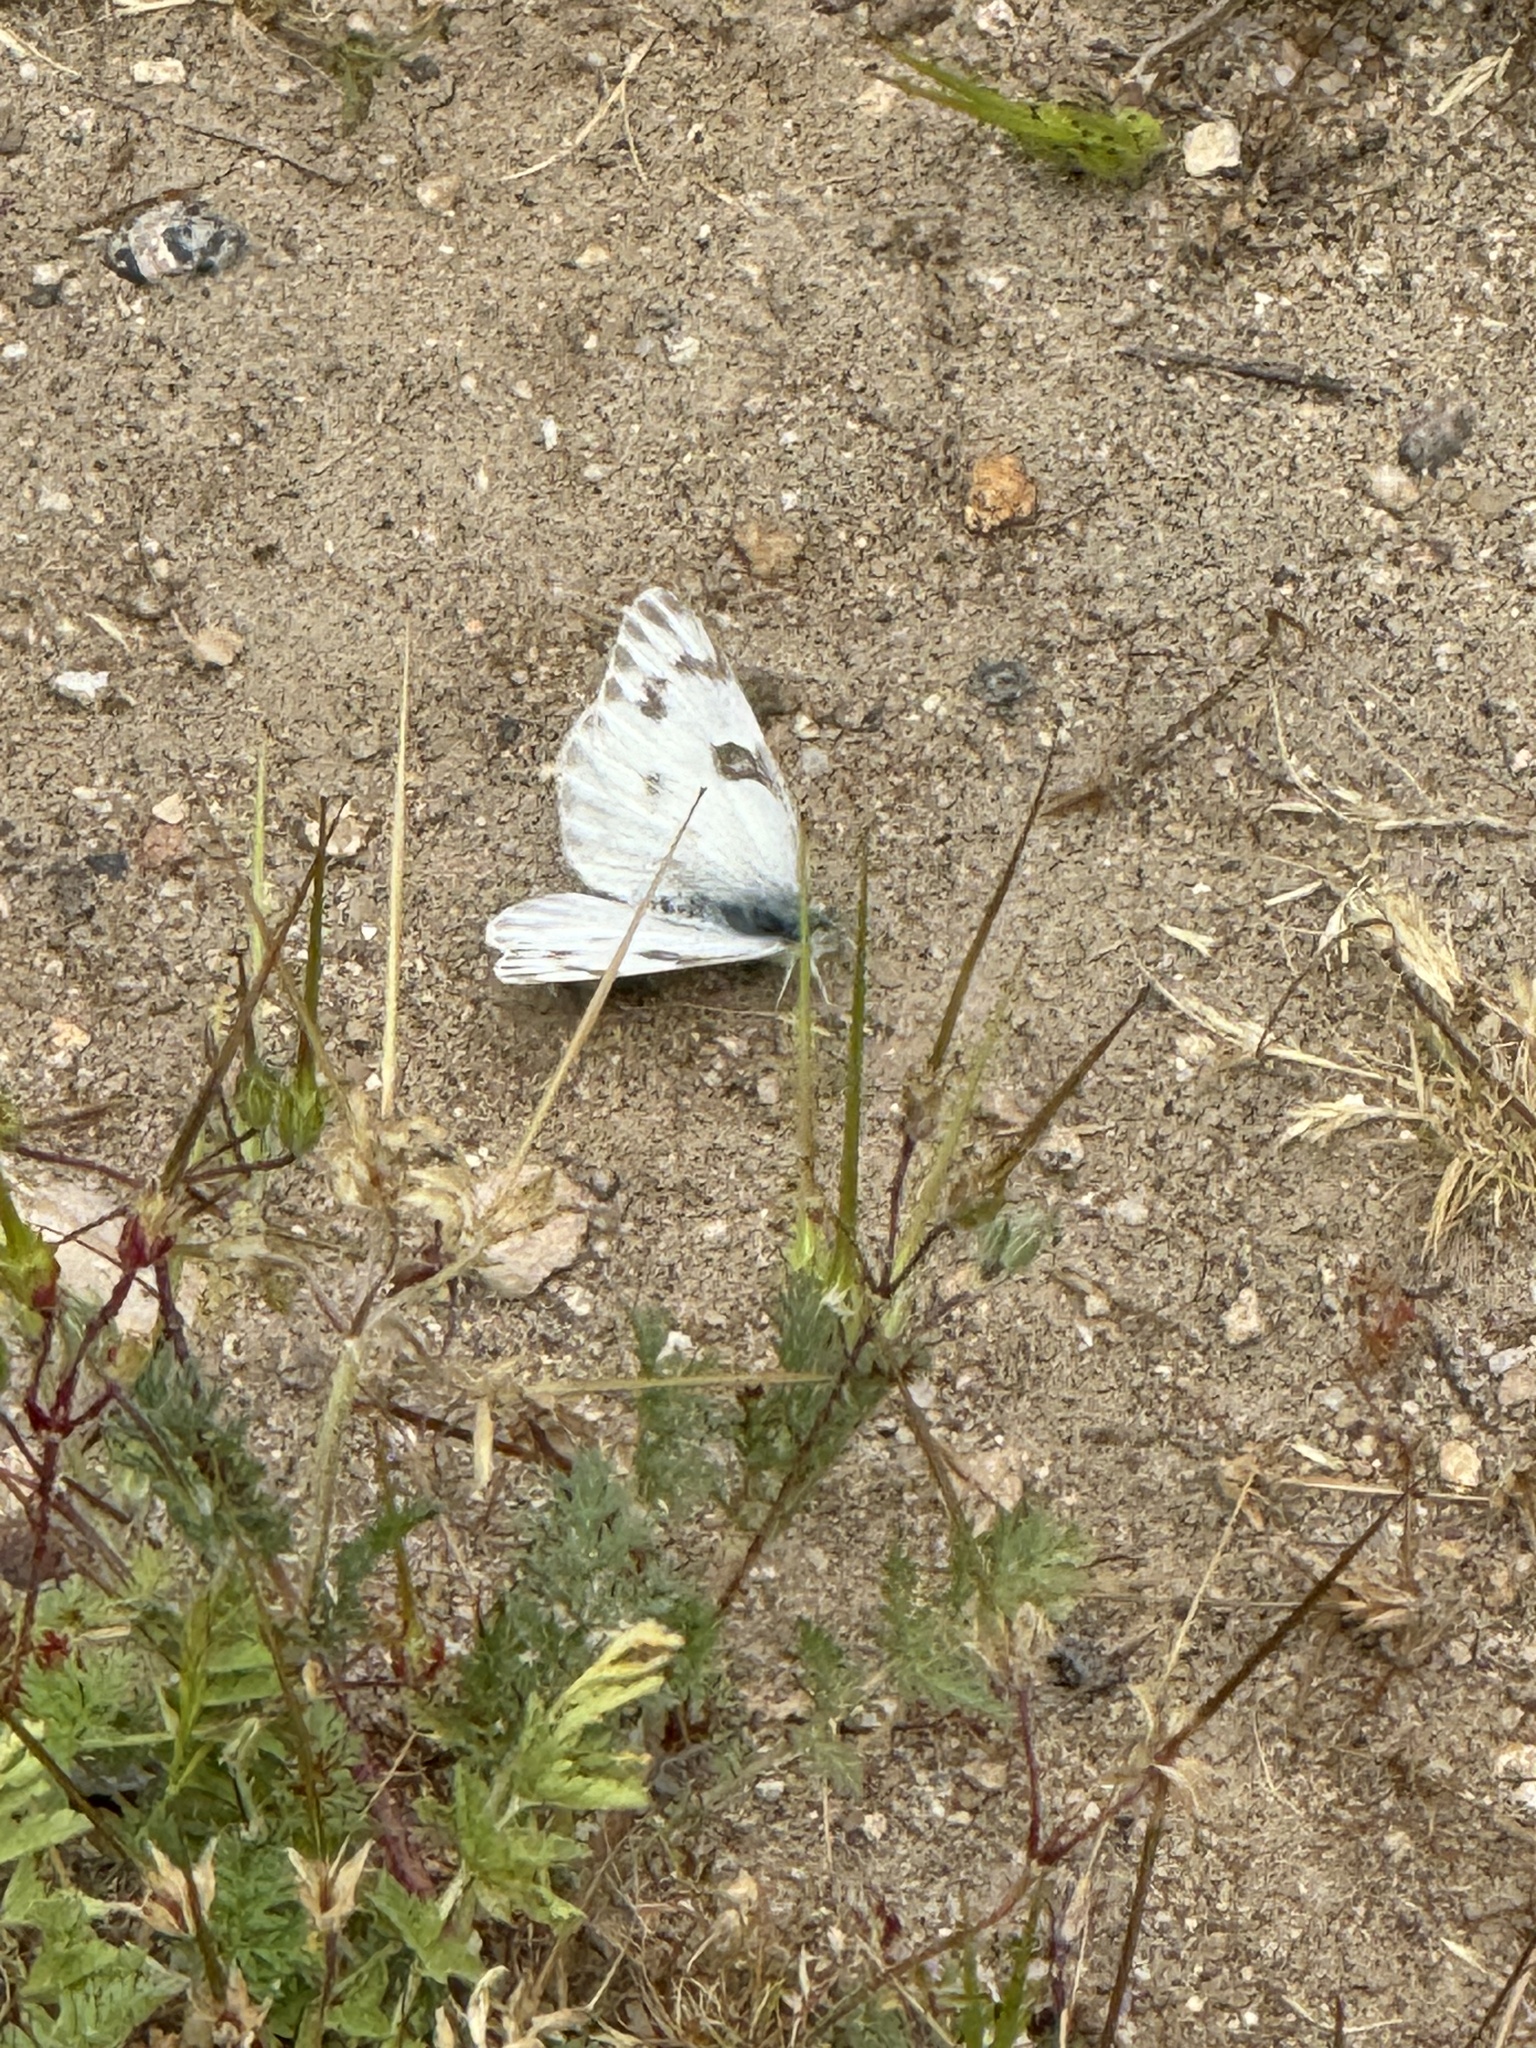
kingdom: Animalia
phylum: Arthropoda
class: Insecta
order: Lepidoptera
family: Pieridae
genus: Pontia
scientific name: Pontia protodice
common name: Checkered white
